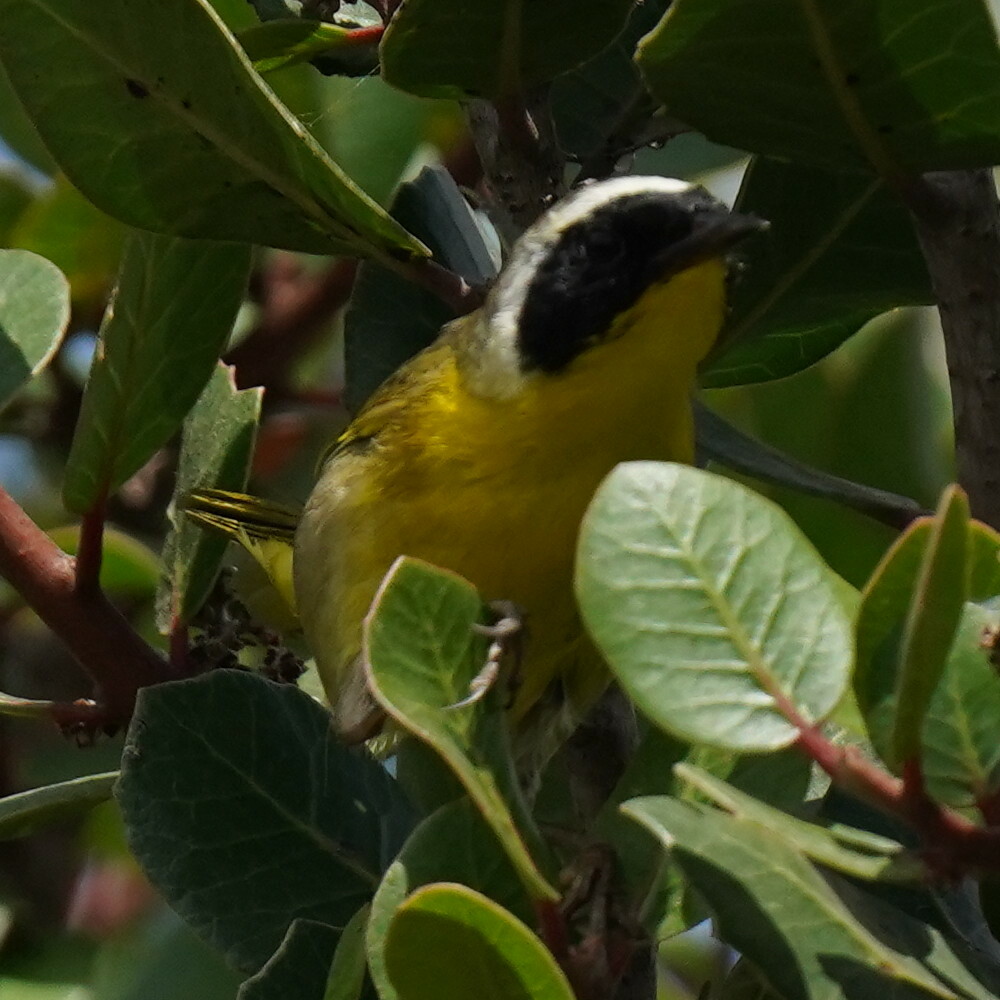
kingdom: Animalia
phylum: Chordata
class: Aves
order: Passeriformes
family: Parulidae
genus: Geothlypis
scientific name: Geothlypis trichas
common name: Common yellowthroat
